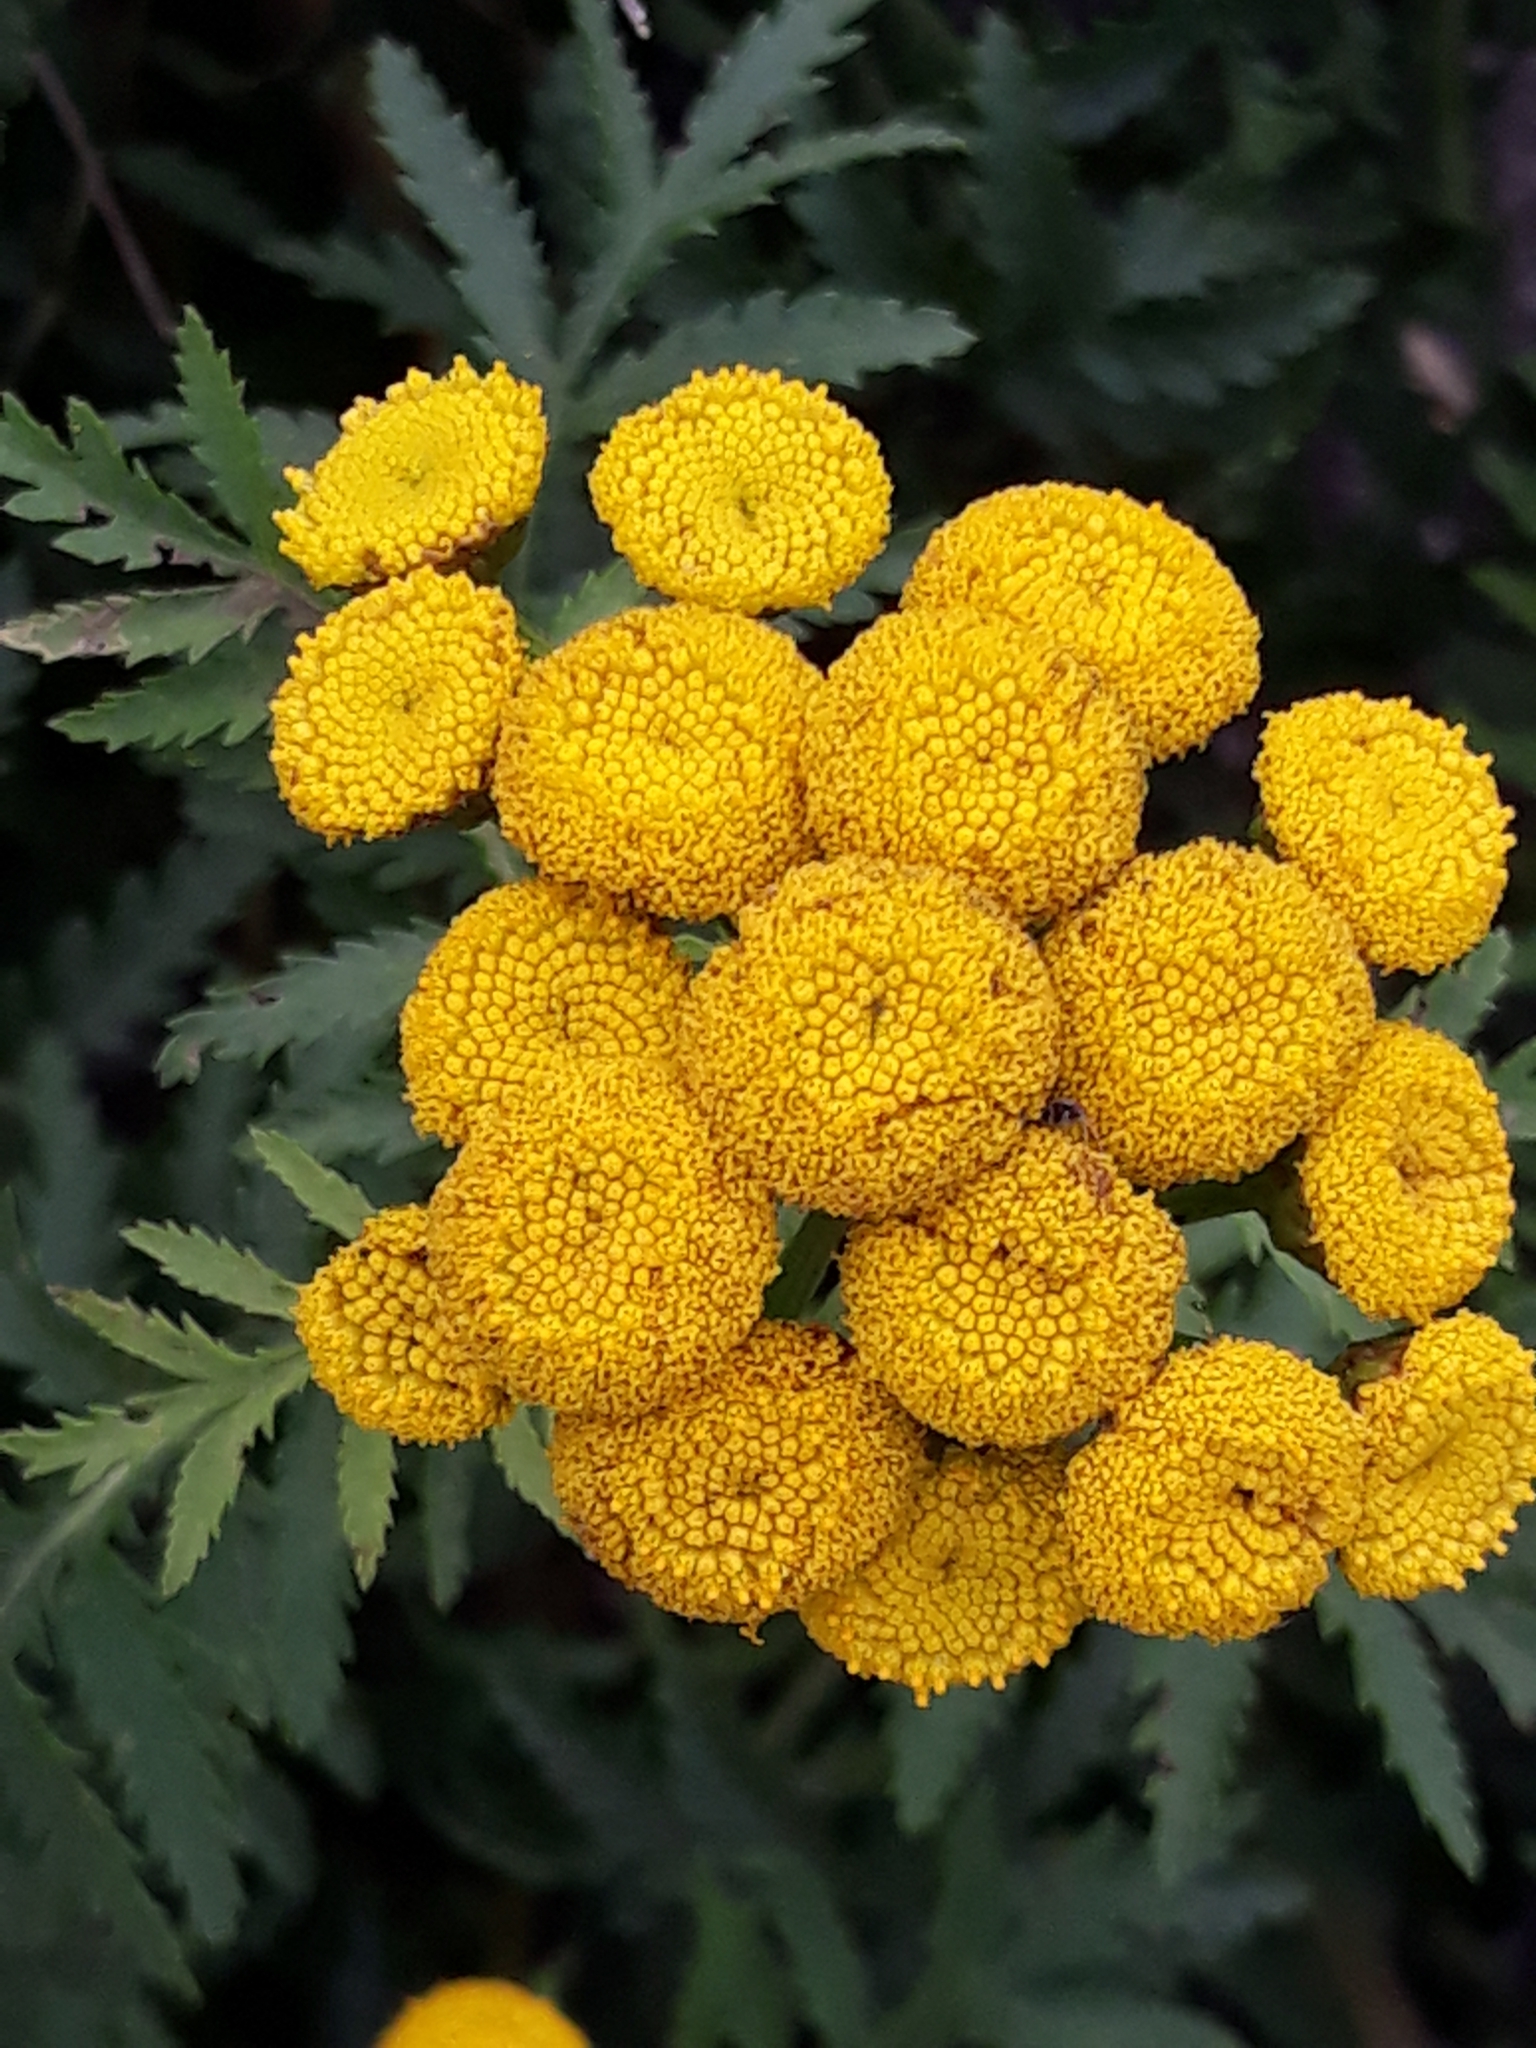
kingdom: Plantae
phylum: Tracheophyta
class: Magnoliopsida
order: Asterales
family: Asteraceae
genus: Tanacetum
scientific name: Tanacetum vulgare
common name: Common tansy
